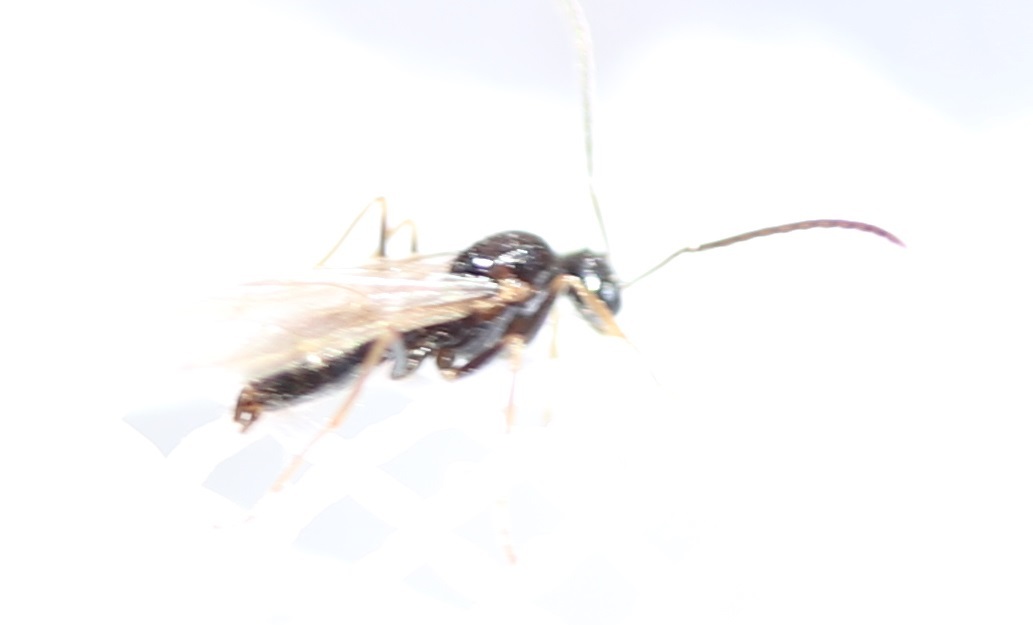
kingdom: Animalia
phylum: Arthropoda
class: Insecta
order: Hymenoptera
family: Formicidae
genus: Prenolepis
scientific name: Prenolepis imparis
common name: Small honey ant
